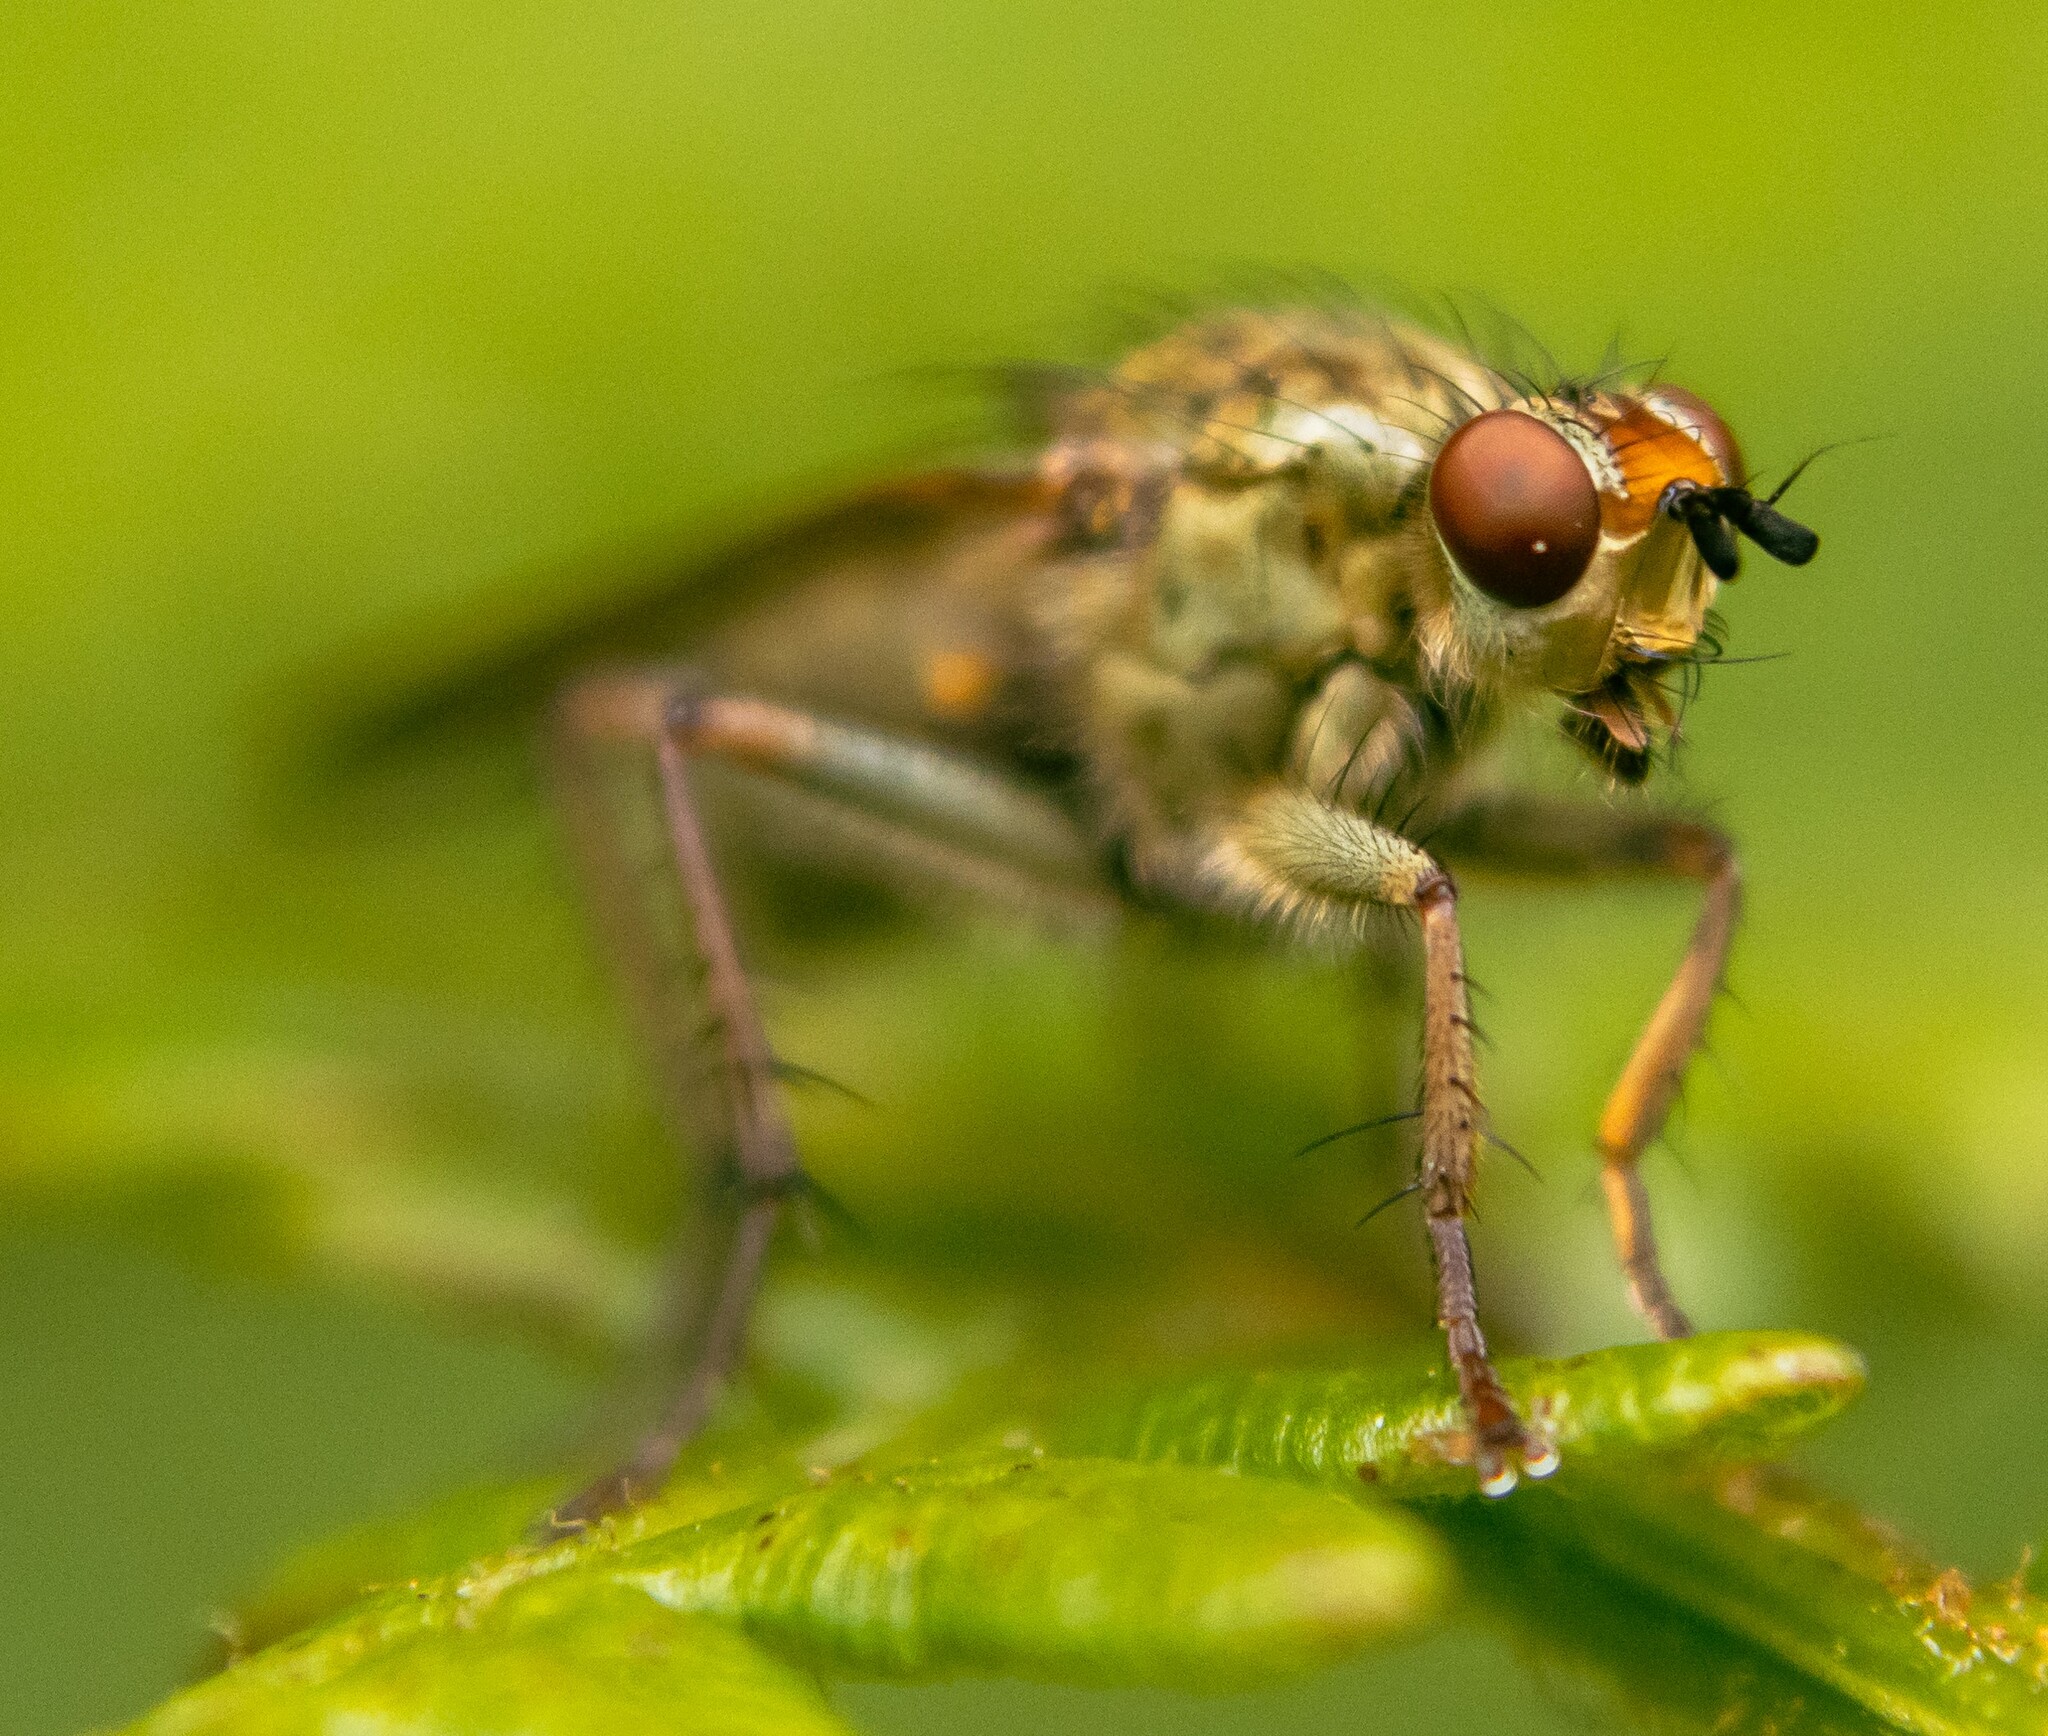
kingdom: Animalia
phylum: Arthropoda
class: Insecta
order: Diptera
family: Scathophagidae
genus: Scathophaga
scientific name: Scathophaga stercoraria
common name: Yellow dung fly
